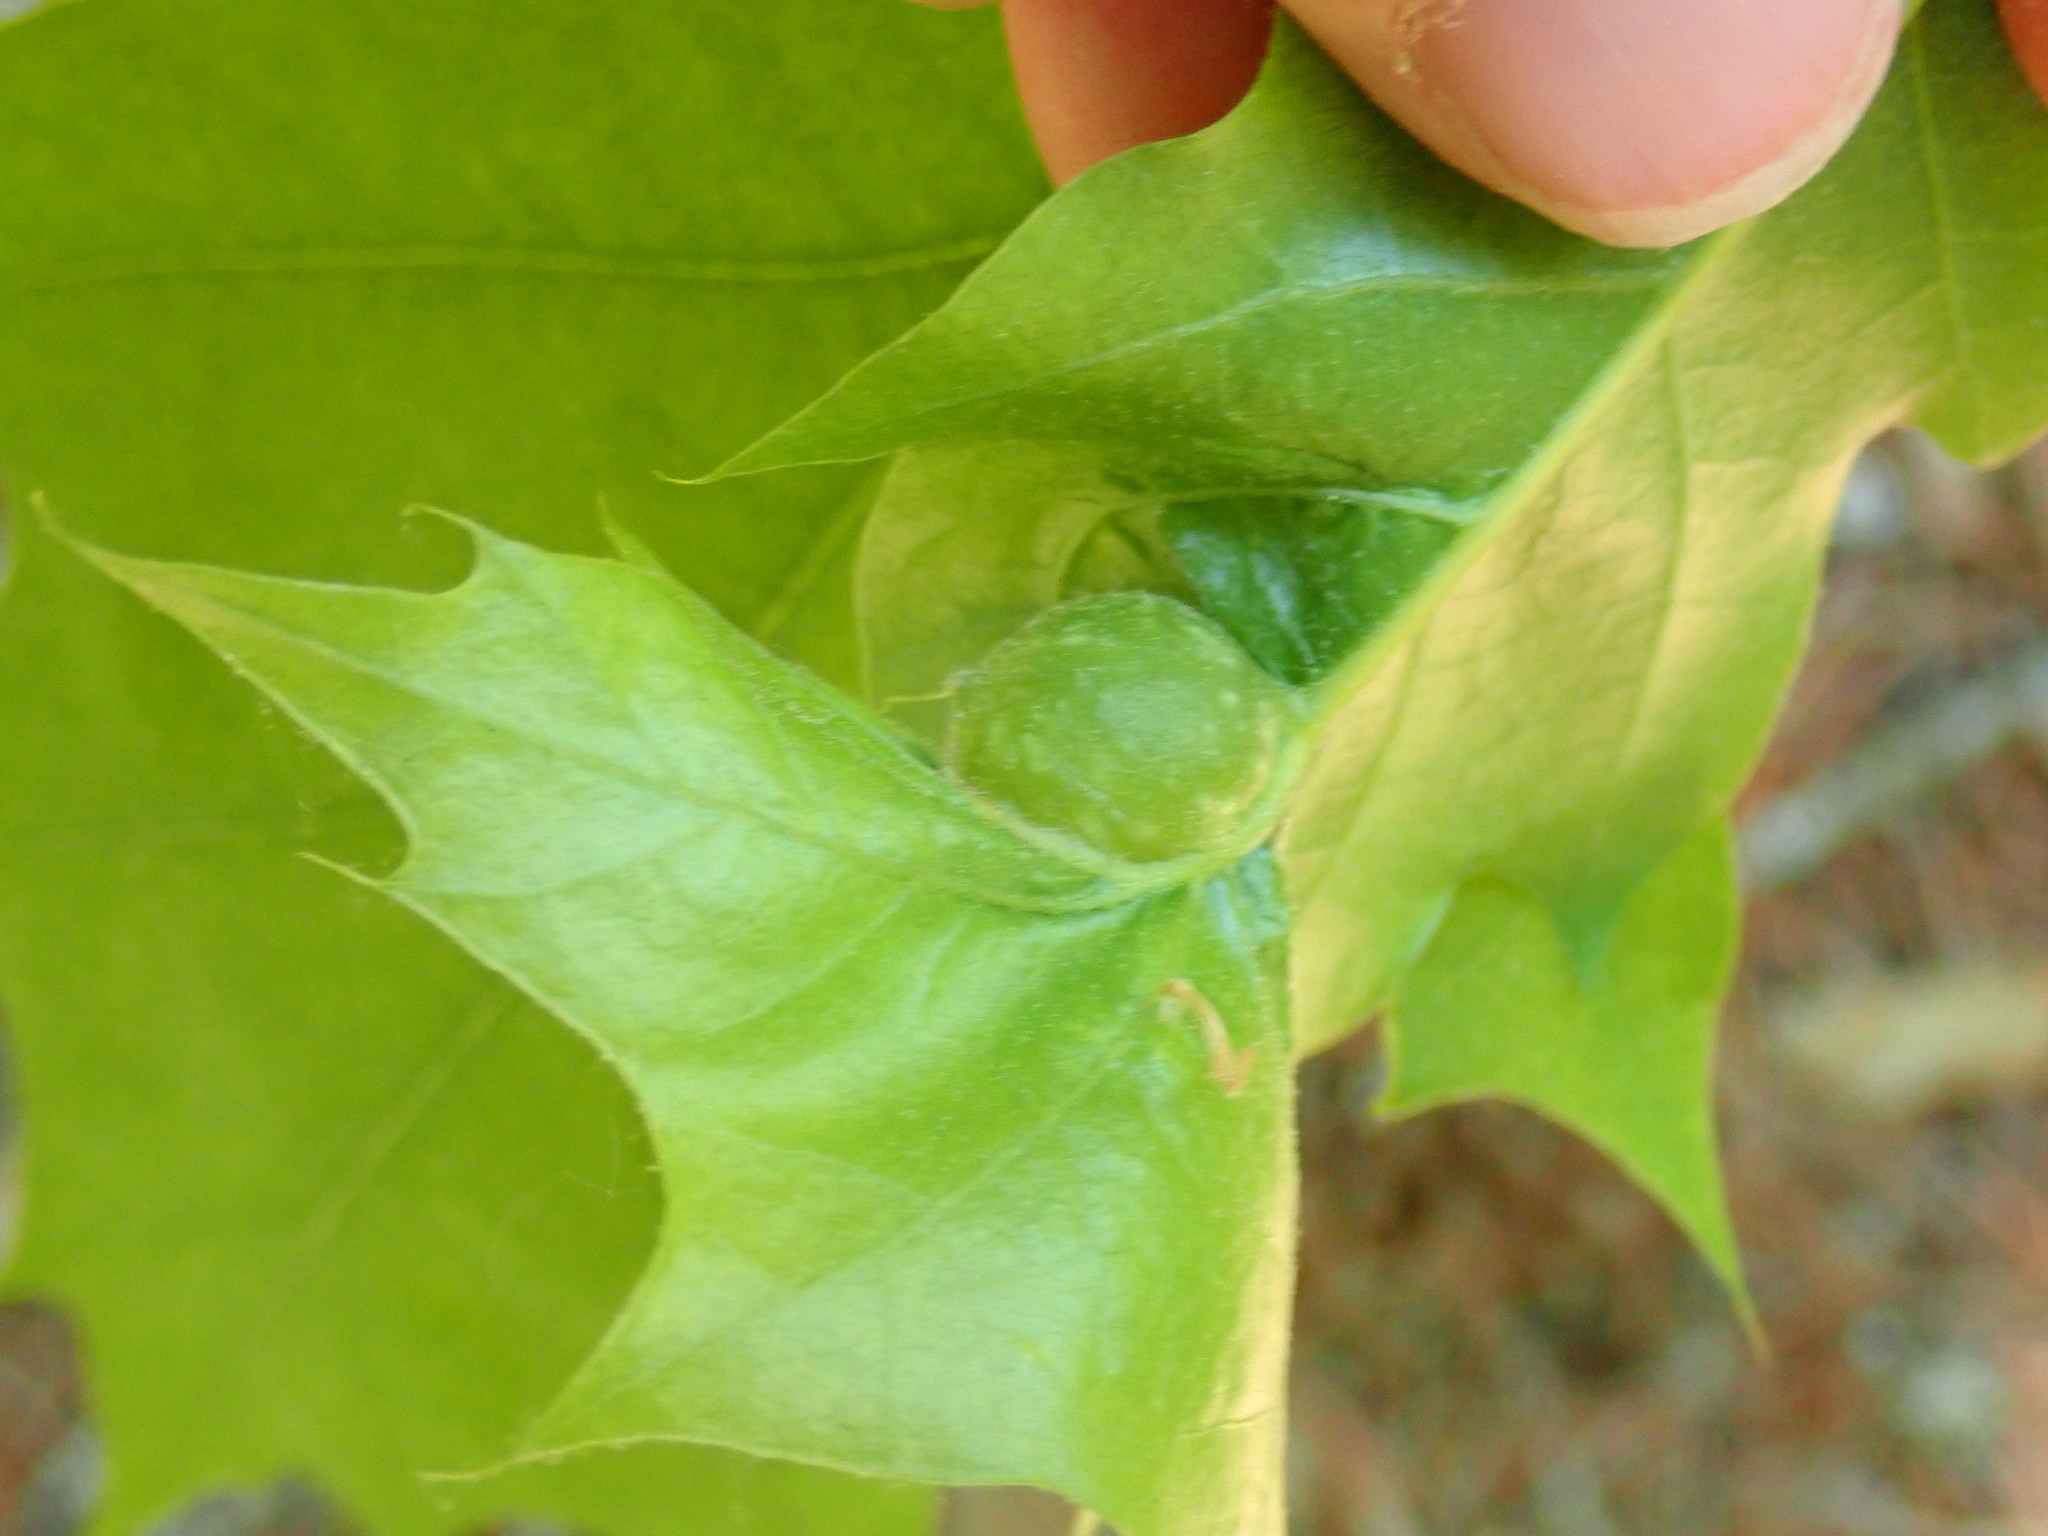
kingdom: Animalia
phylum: Arthropoda
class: Insecta
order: Hymenoptera
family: Cynipidae
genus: Dryocosmus
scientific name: Dryocosmus quercuspalustris
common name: Succulent oak gall wasp
